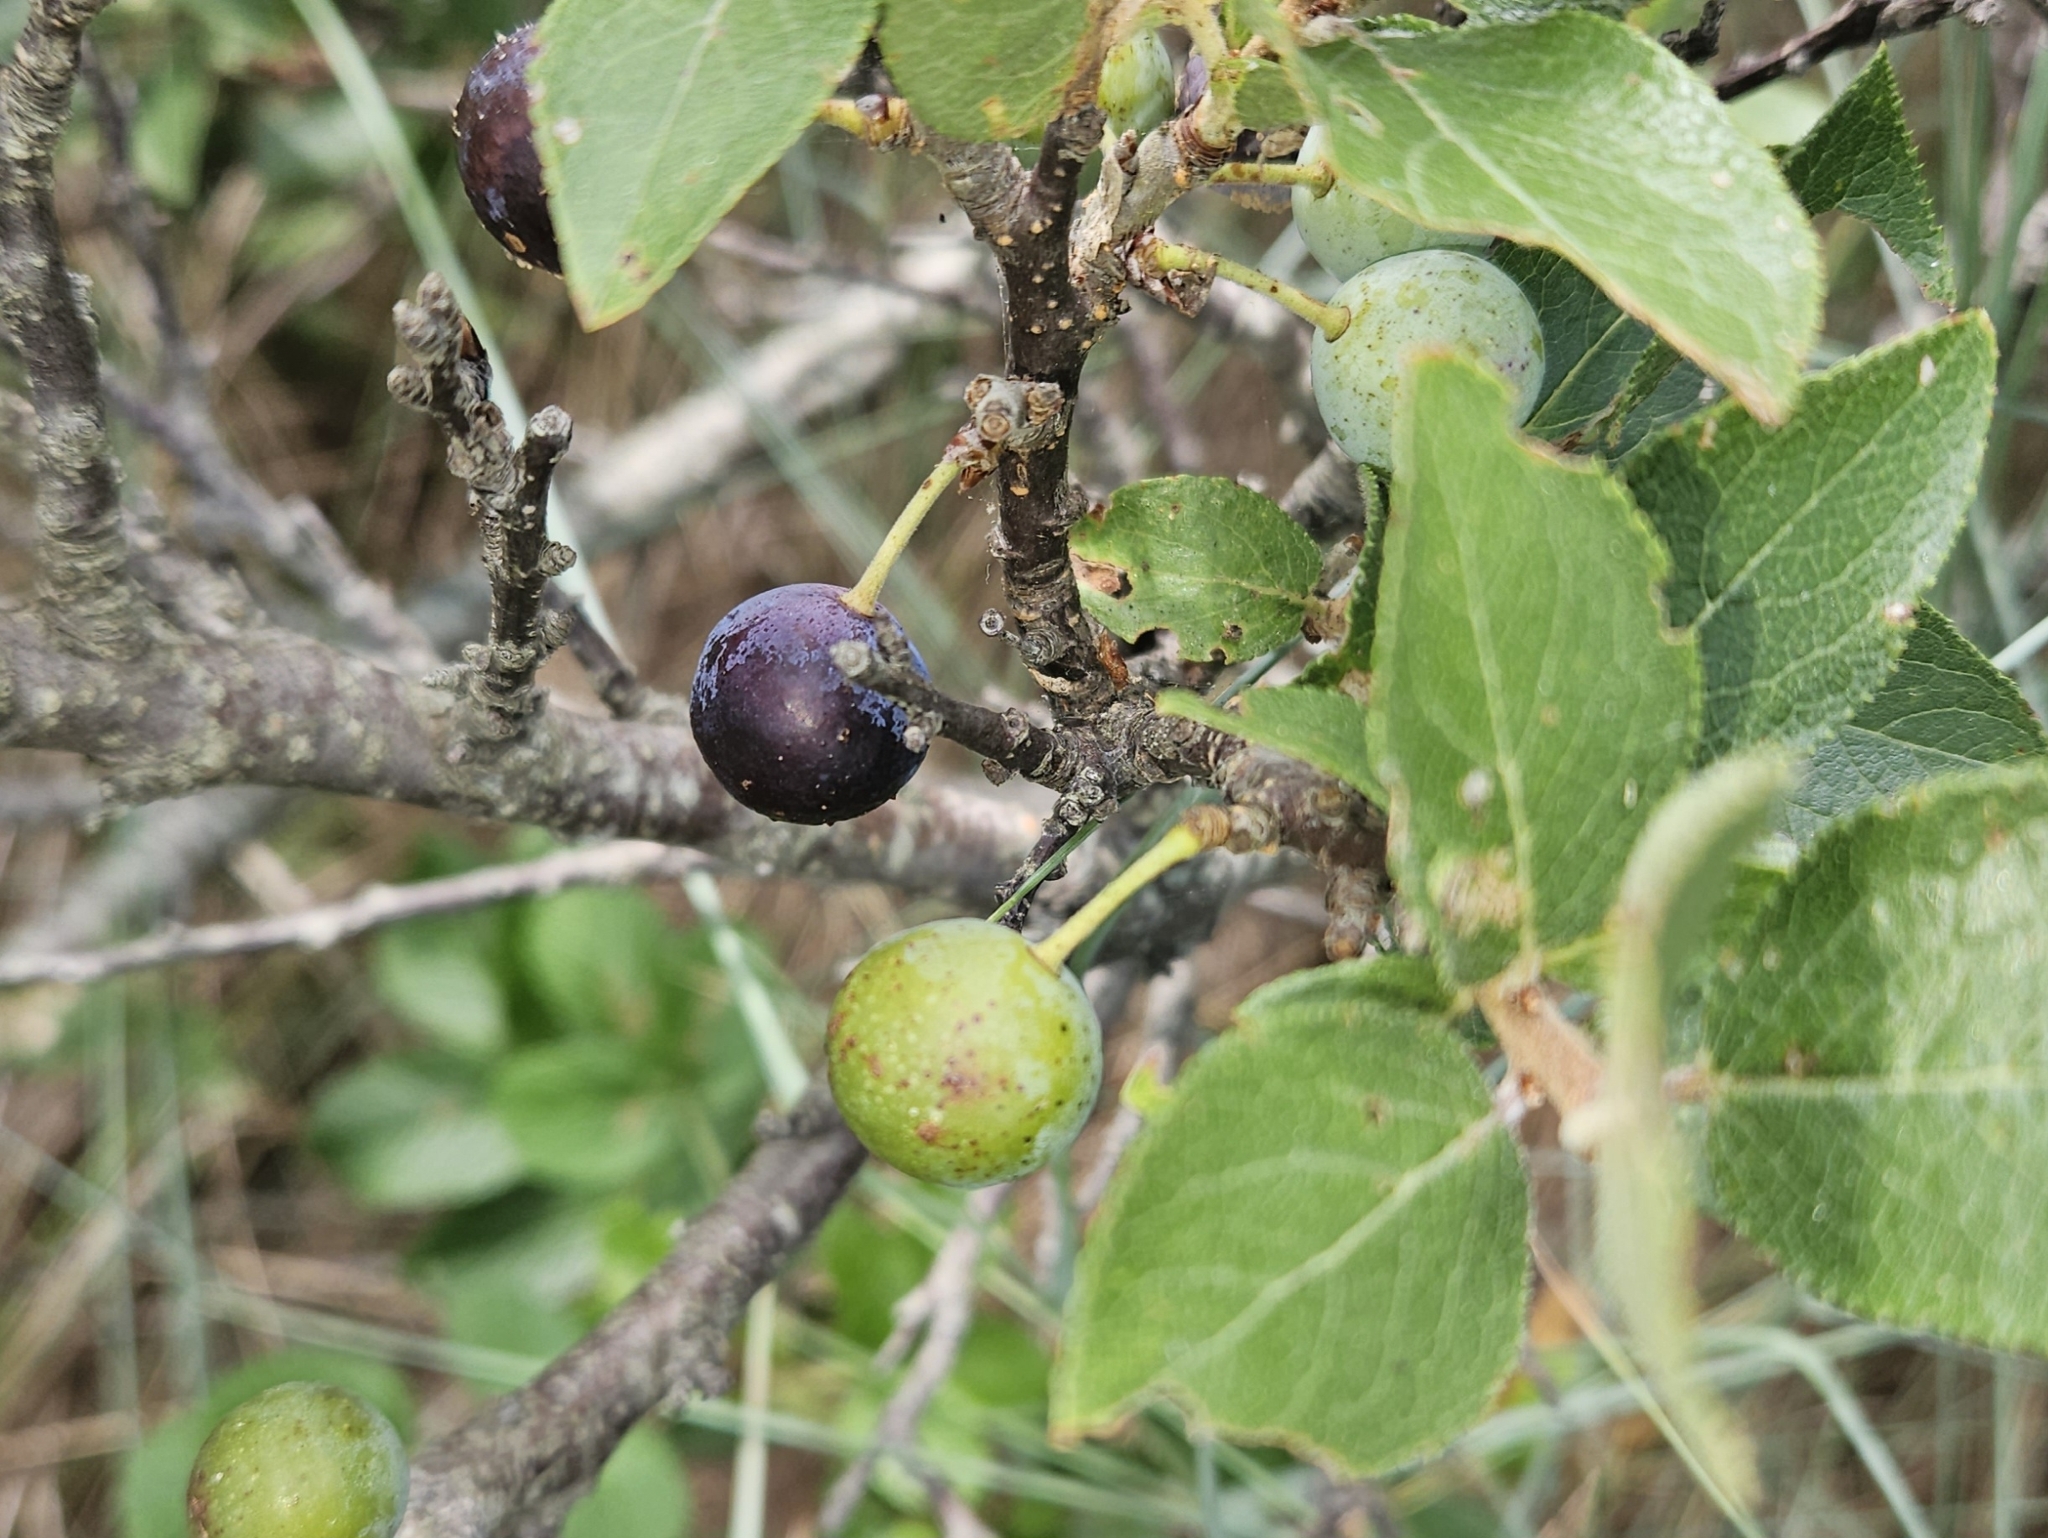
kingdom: Plantae
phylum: Tracheophyta
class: Magnoliopsida
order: Rosales
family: Rosaceae
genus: Prunus
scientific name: Prunus maritima
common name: Beach plum
